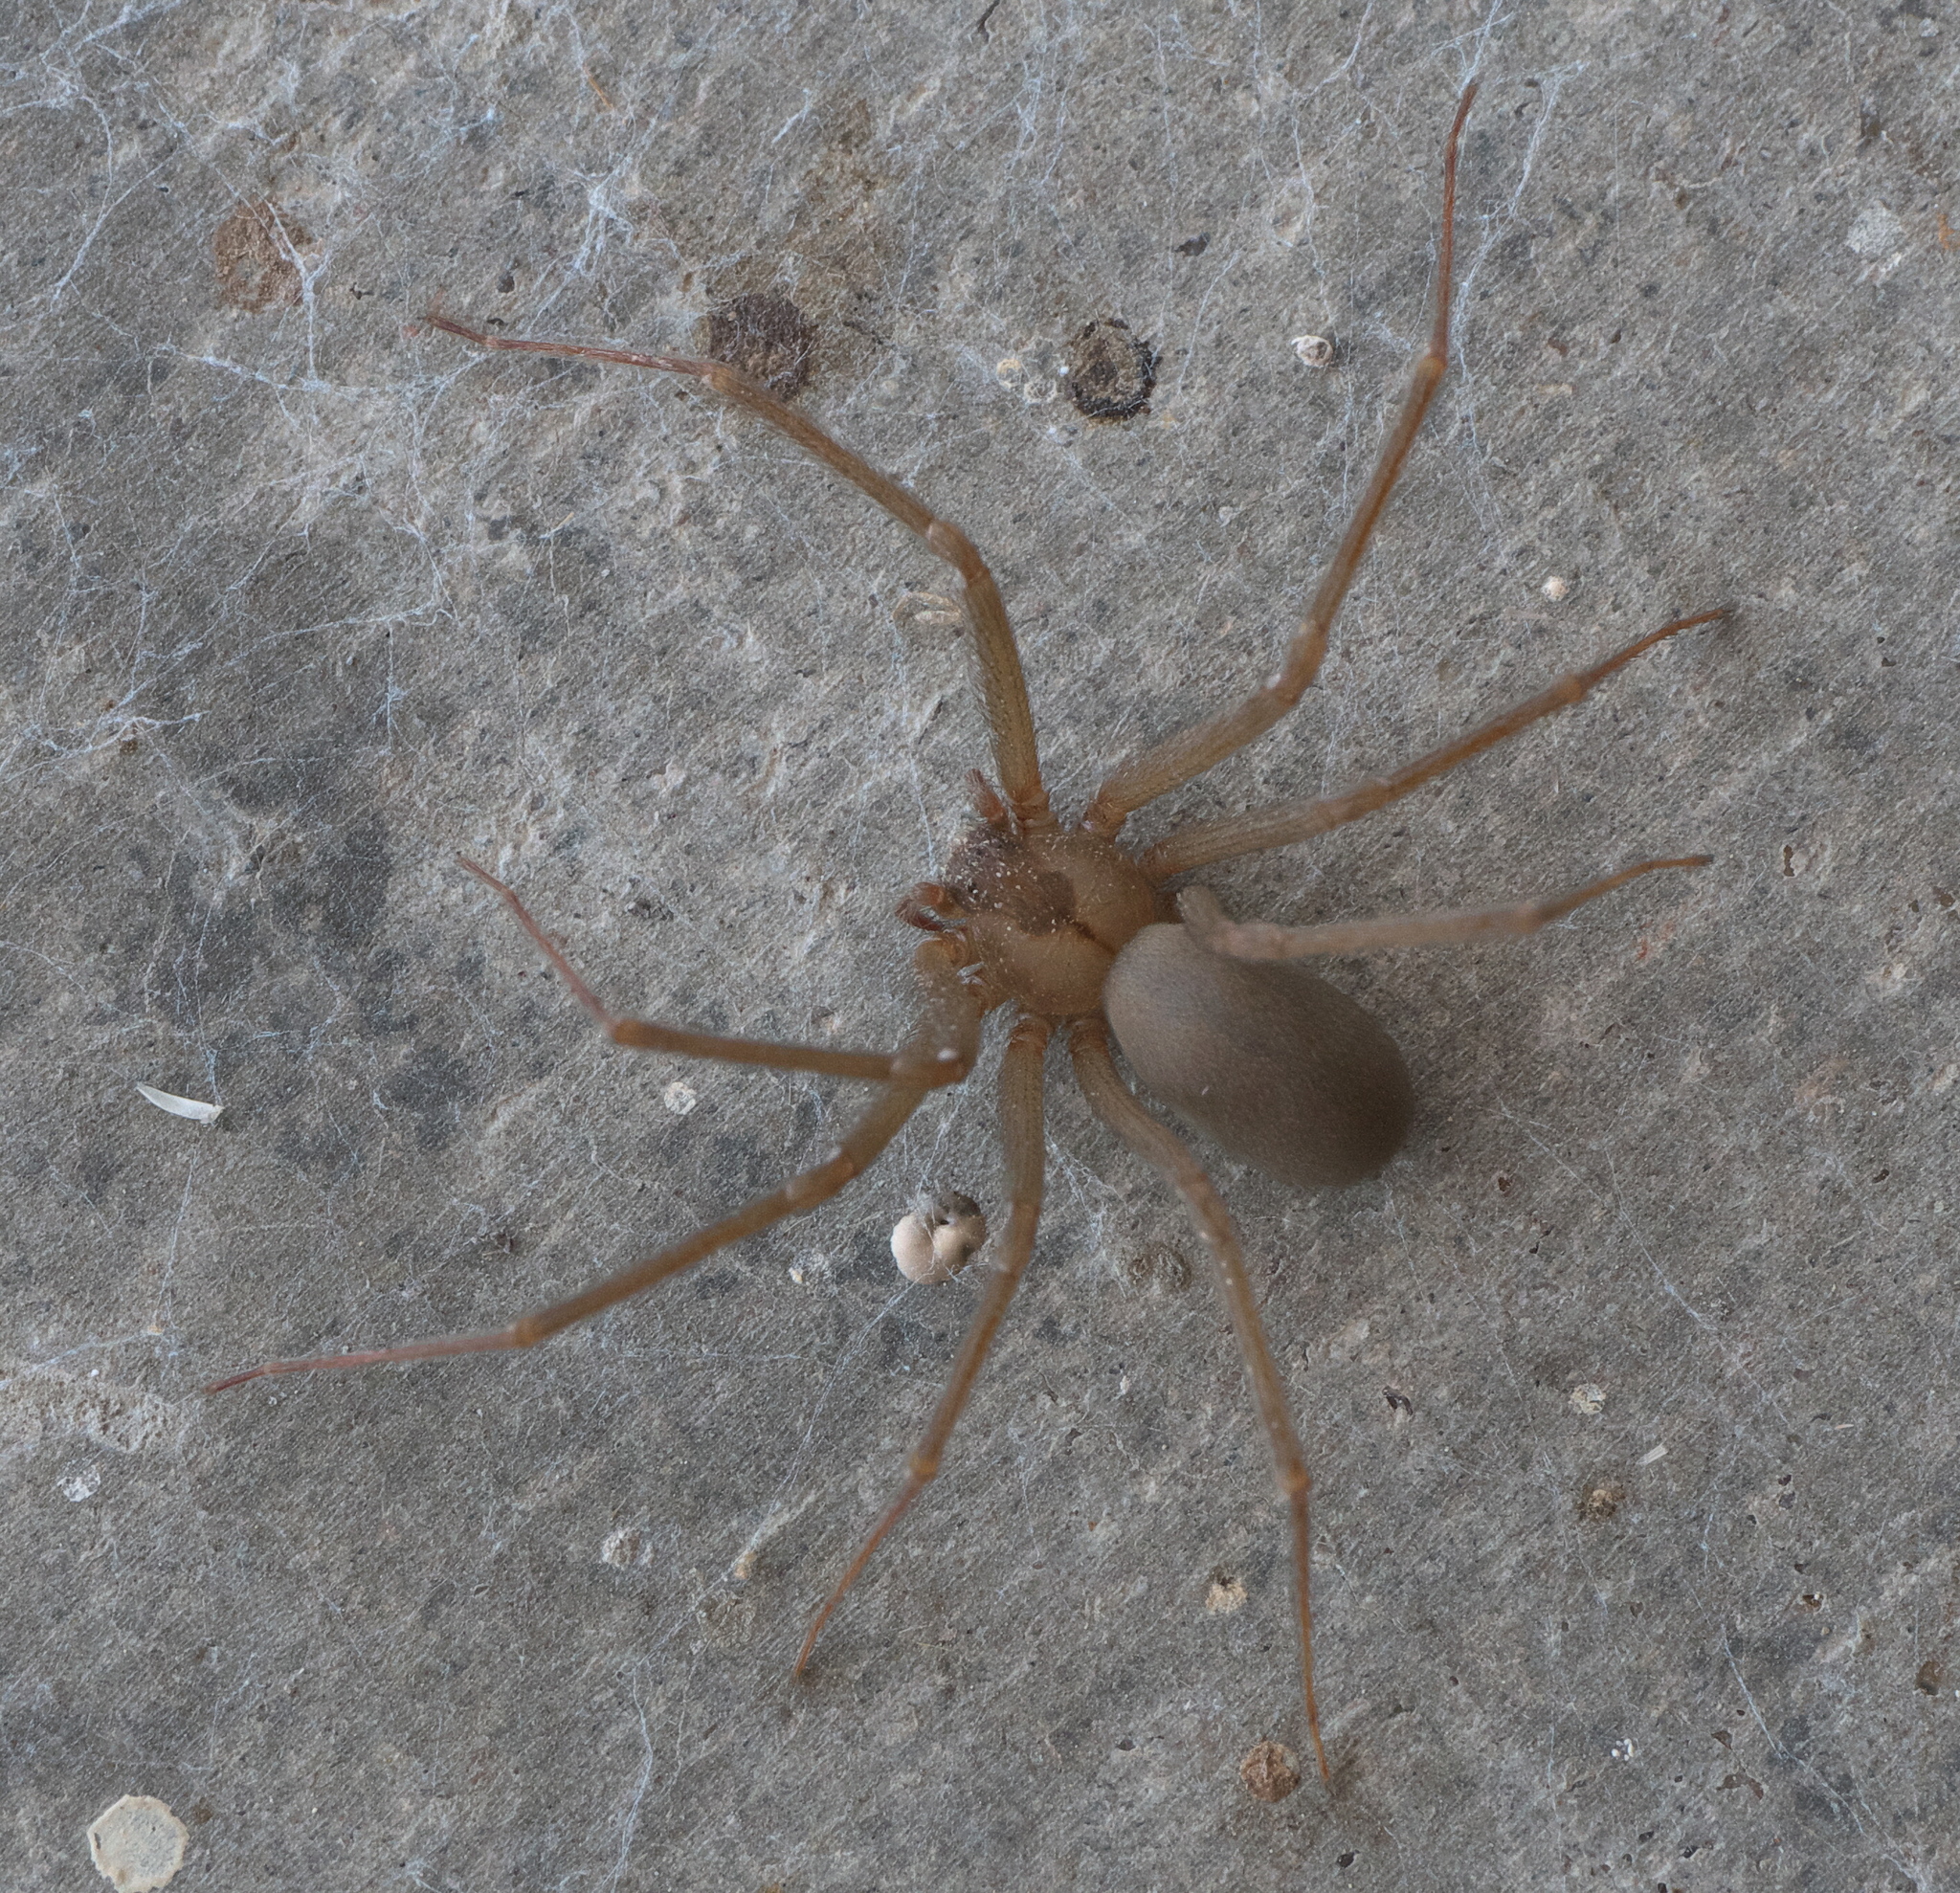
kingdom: Animalia
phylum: Arthropoda
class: Arachnida
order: Araneae
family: Sicariidae
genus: Loxosceles
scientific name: Loxosceles reclusa
